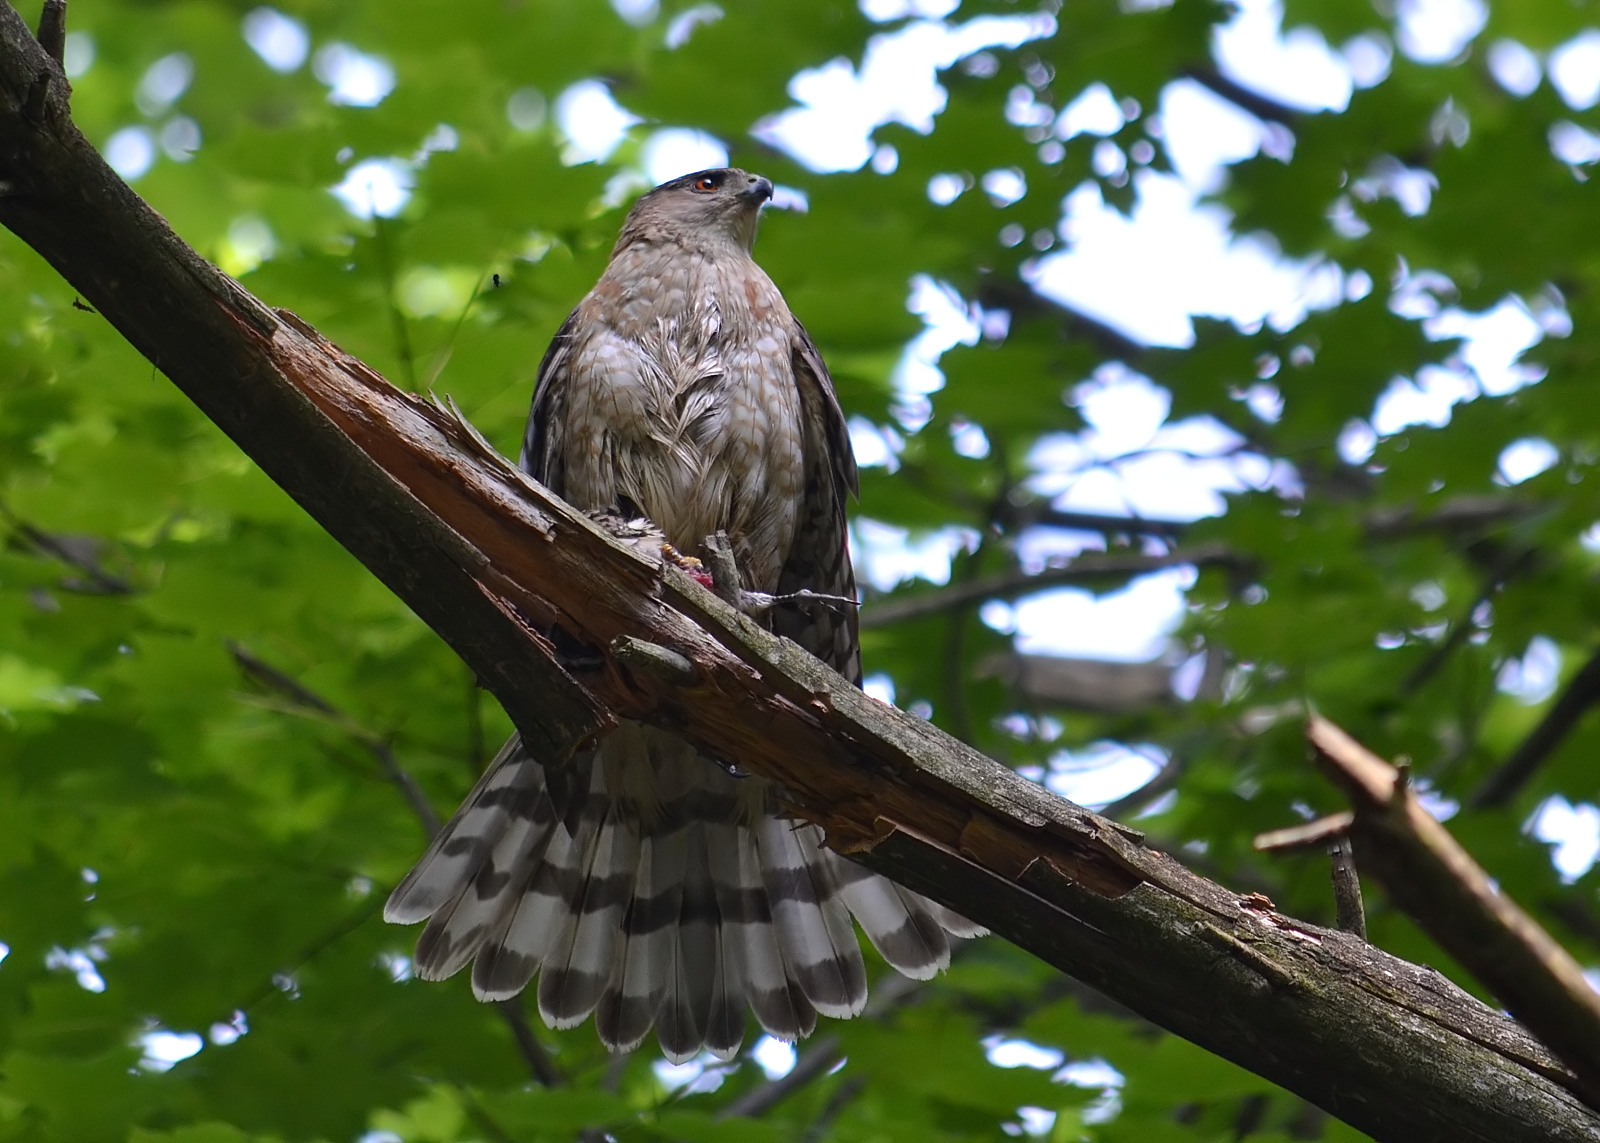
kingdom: Animalia
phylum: Chordata
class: Aves
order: Accipitriformes
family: Accipitridae
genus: Accipiter
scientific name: Accipiter cooperii
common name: Cooper's hawk
